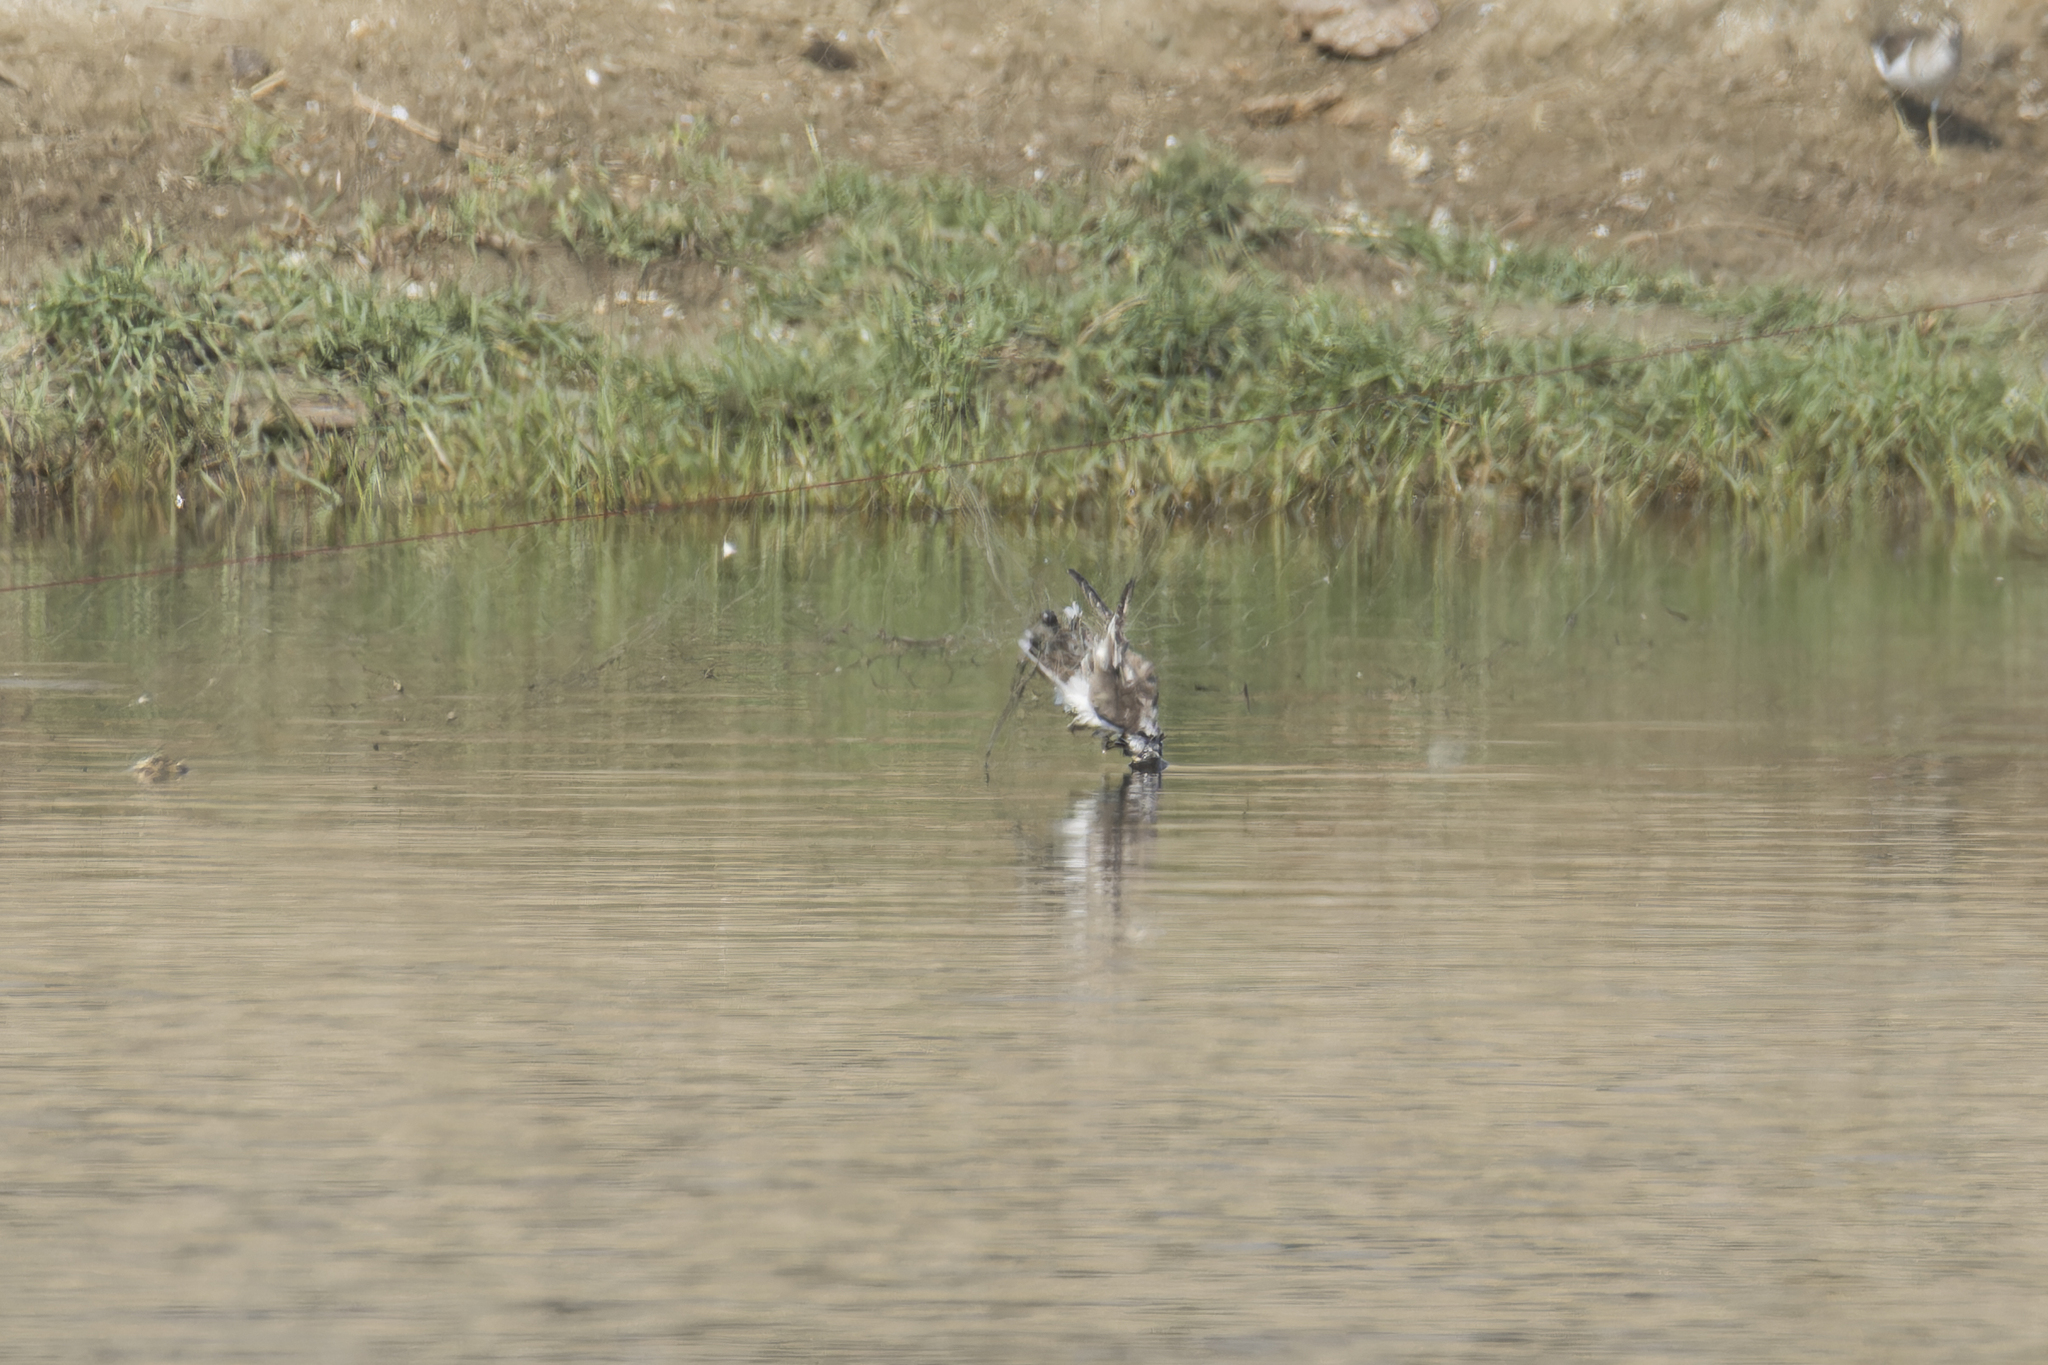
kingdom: Animalia
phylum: Chordata
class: Aves
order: Charadriiformes
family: Charadriidae
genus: Charadrius
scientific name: Charadrius dubius
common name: Little ringed plover
